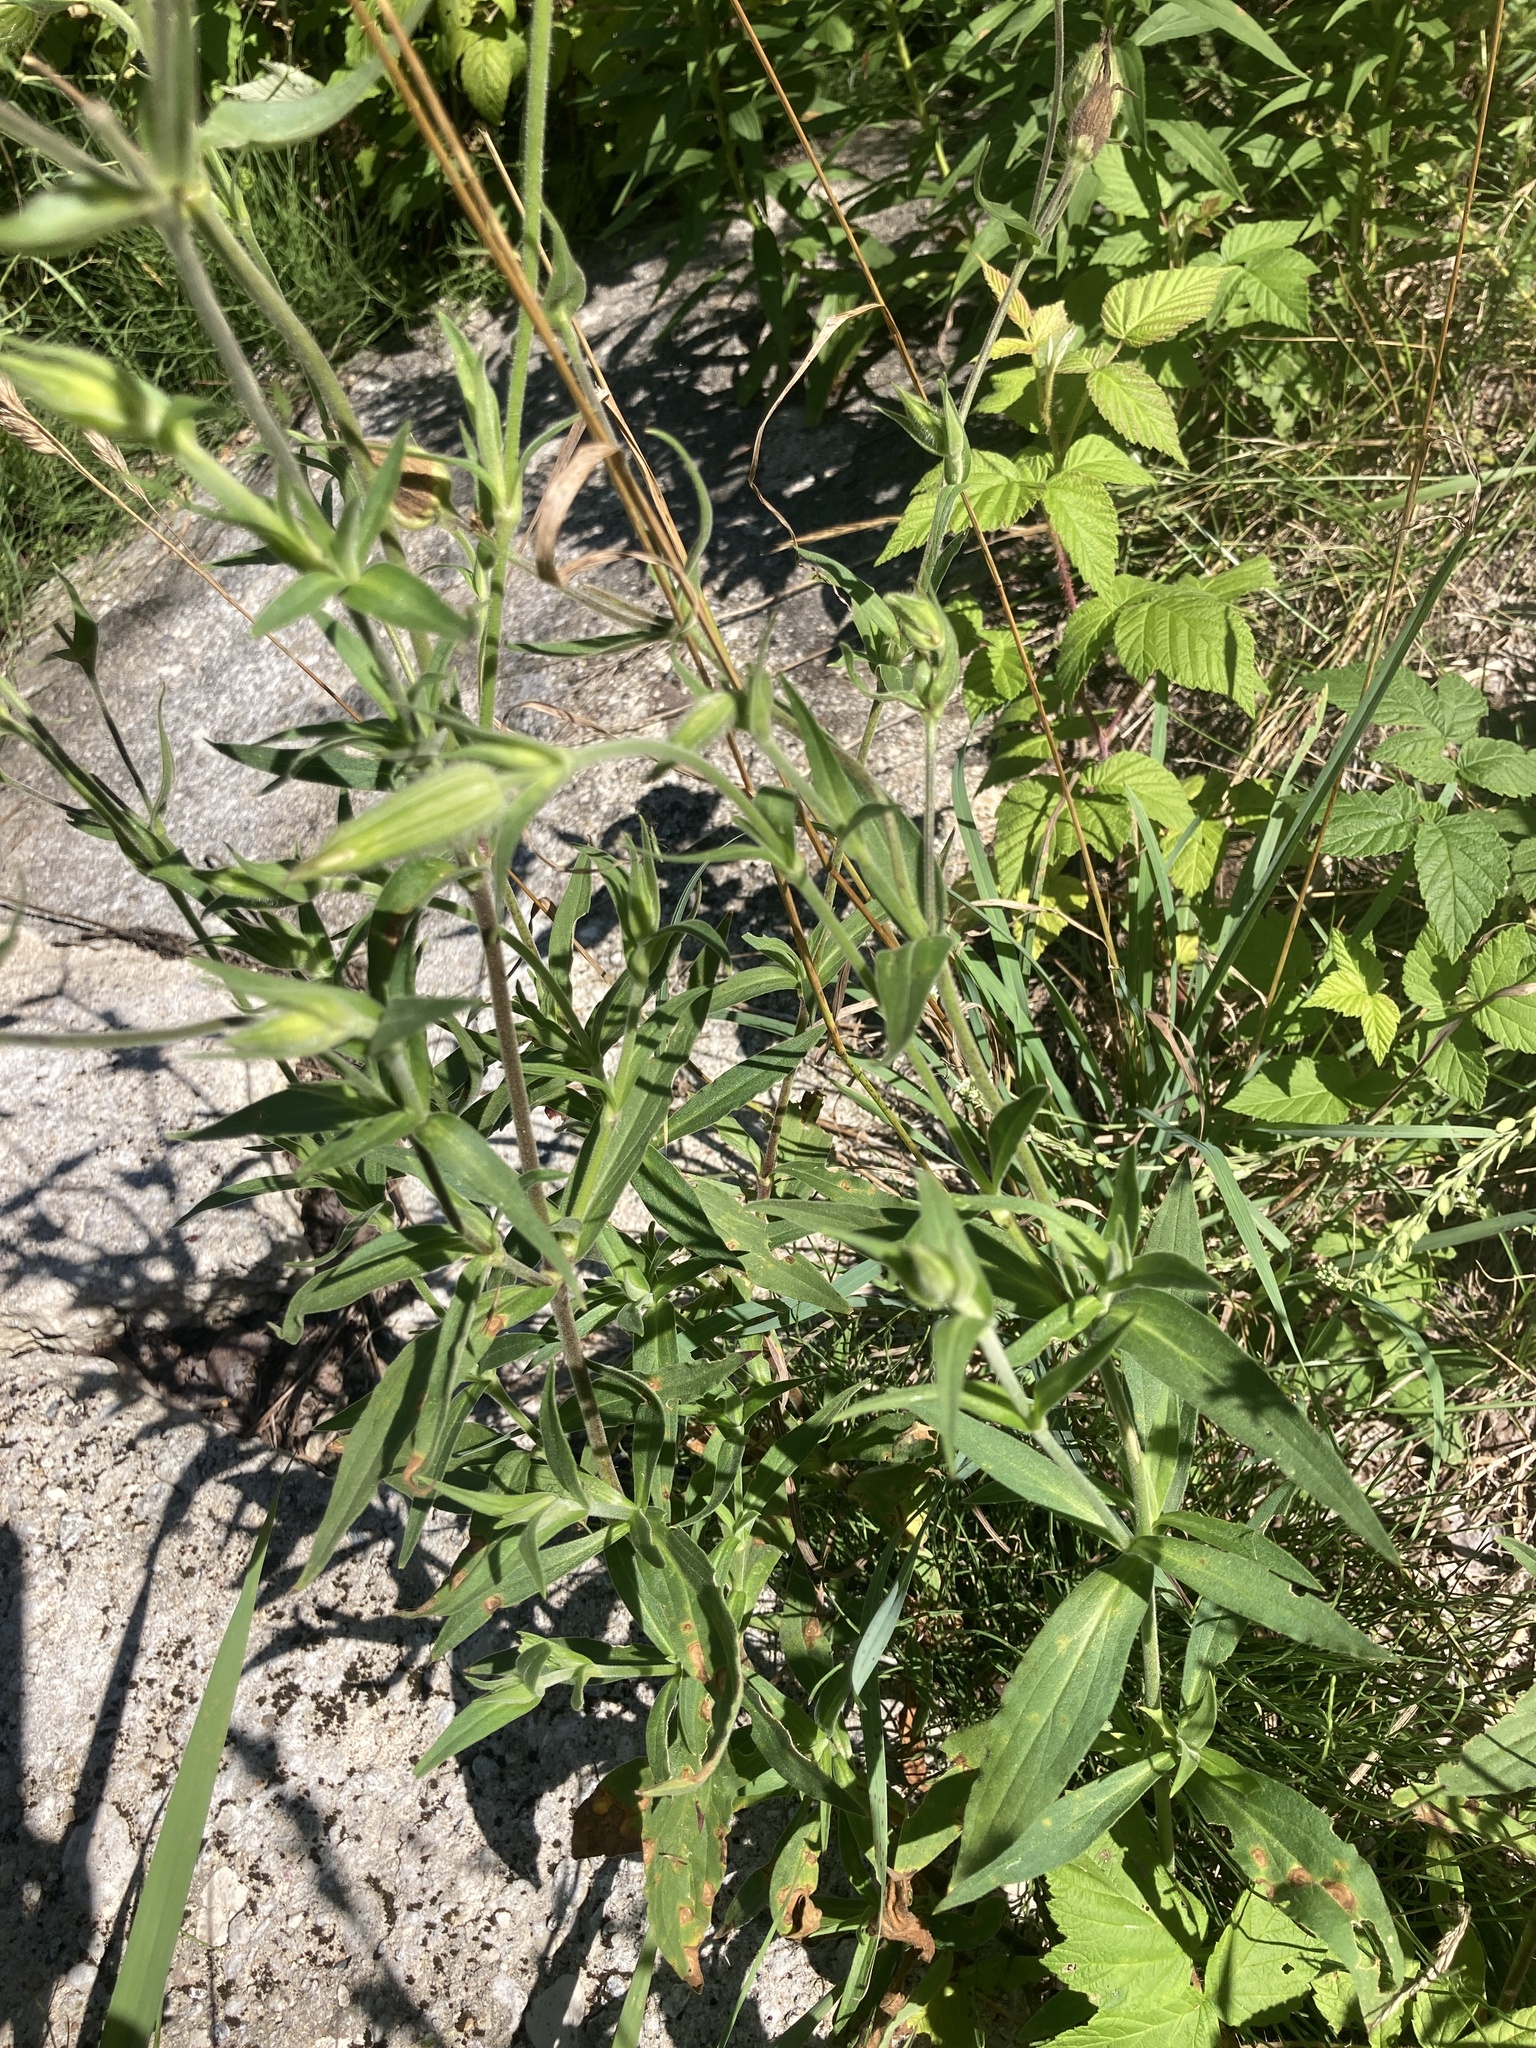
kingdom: Plantae
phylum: Tracheophyta
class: Magnoliopsida
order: Caryophyllales
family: Caryophyllaceae
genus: Silene
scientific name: Silene latifolia
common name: White campion
